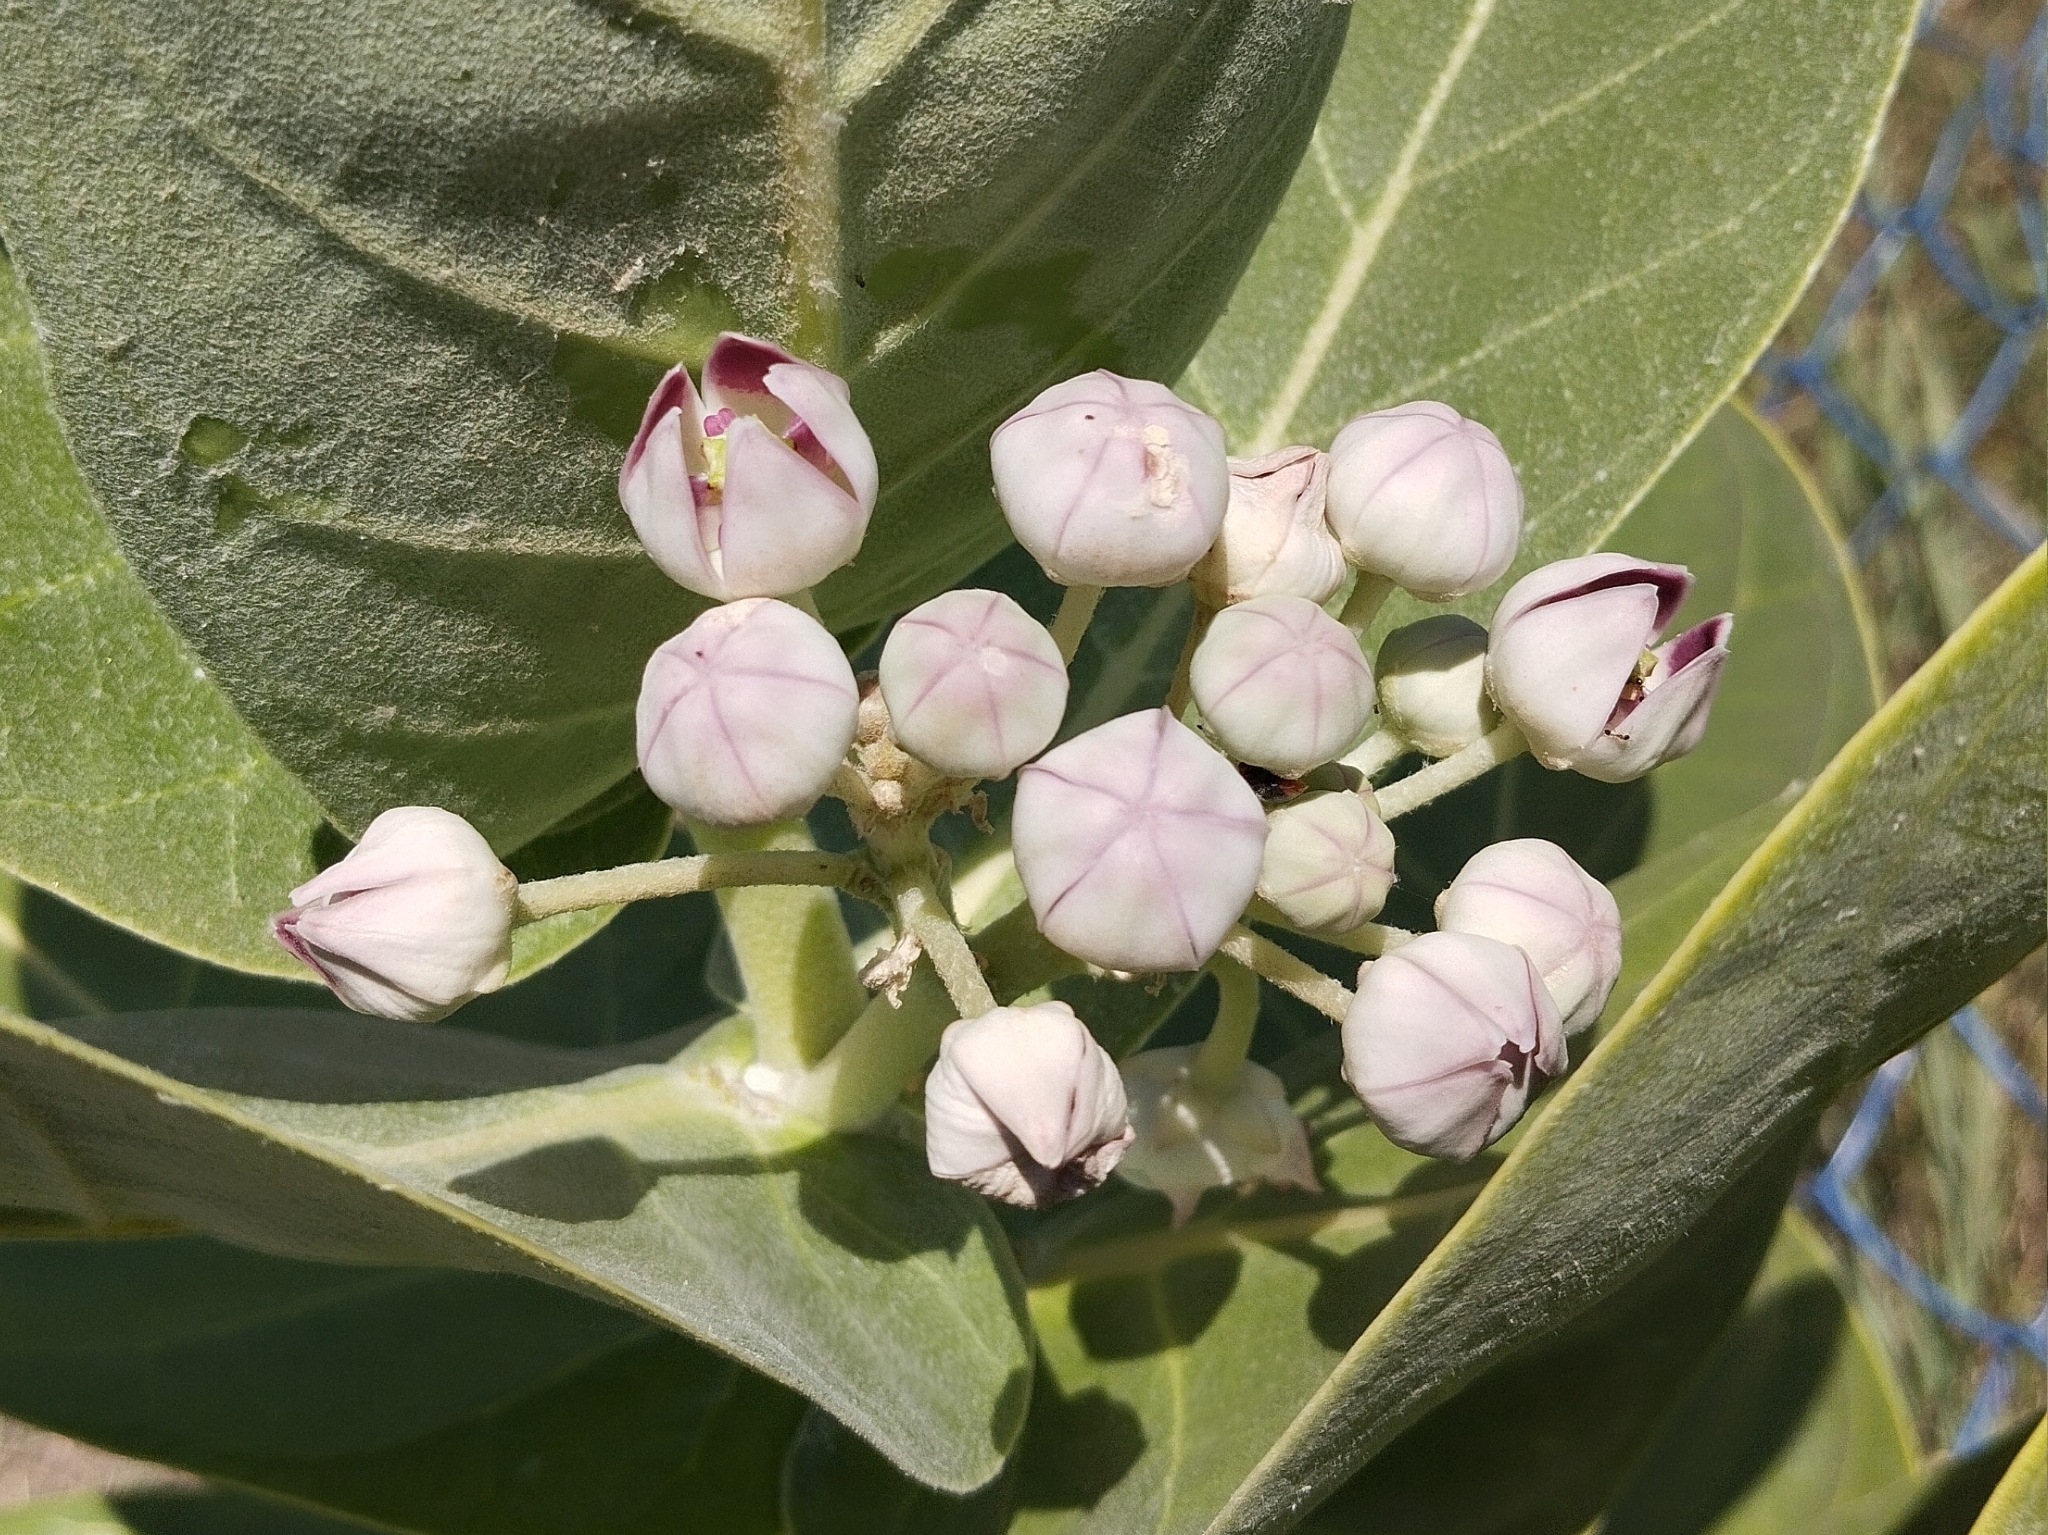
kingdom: Plantae
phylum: Tracheophyta
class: Magnoliopsida
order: Gentianales
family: Apocynaceae
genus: Calotropis
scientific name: Calotropis procera
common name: Roostertree
